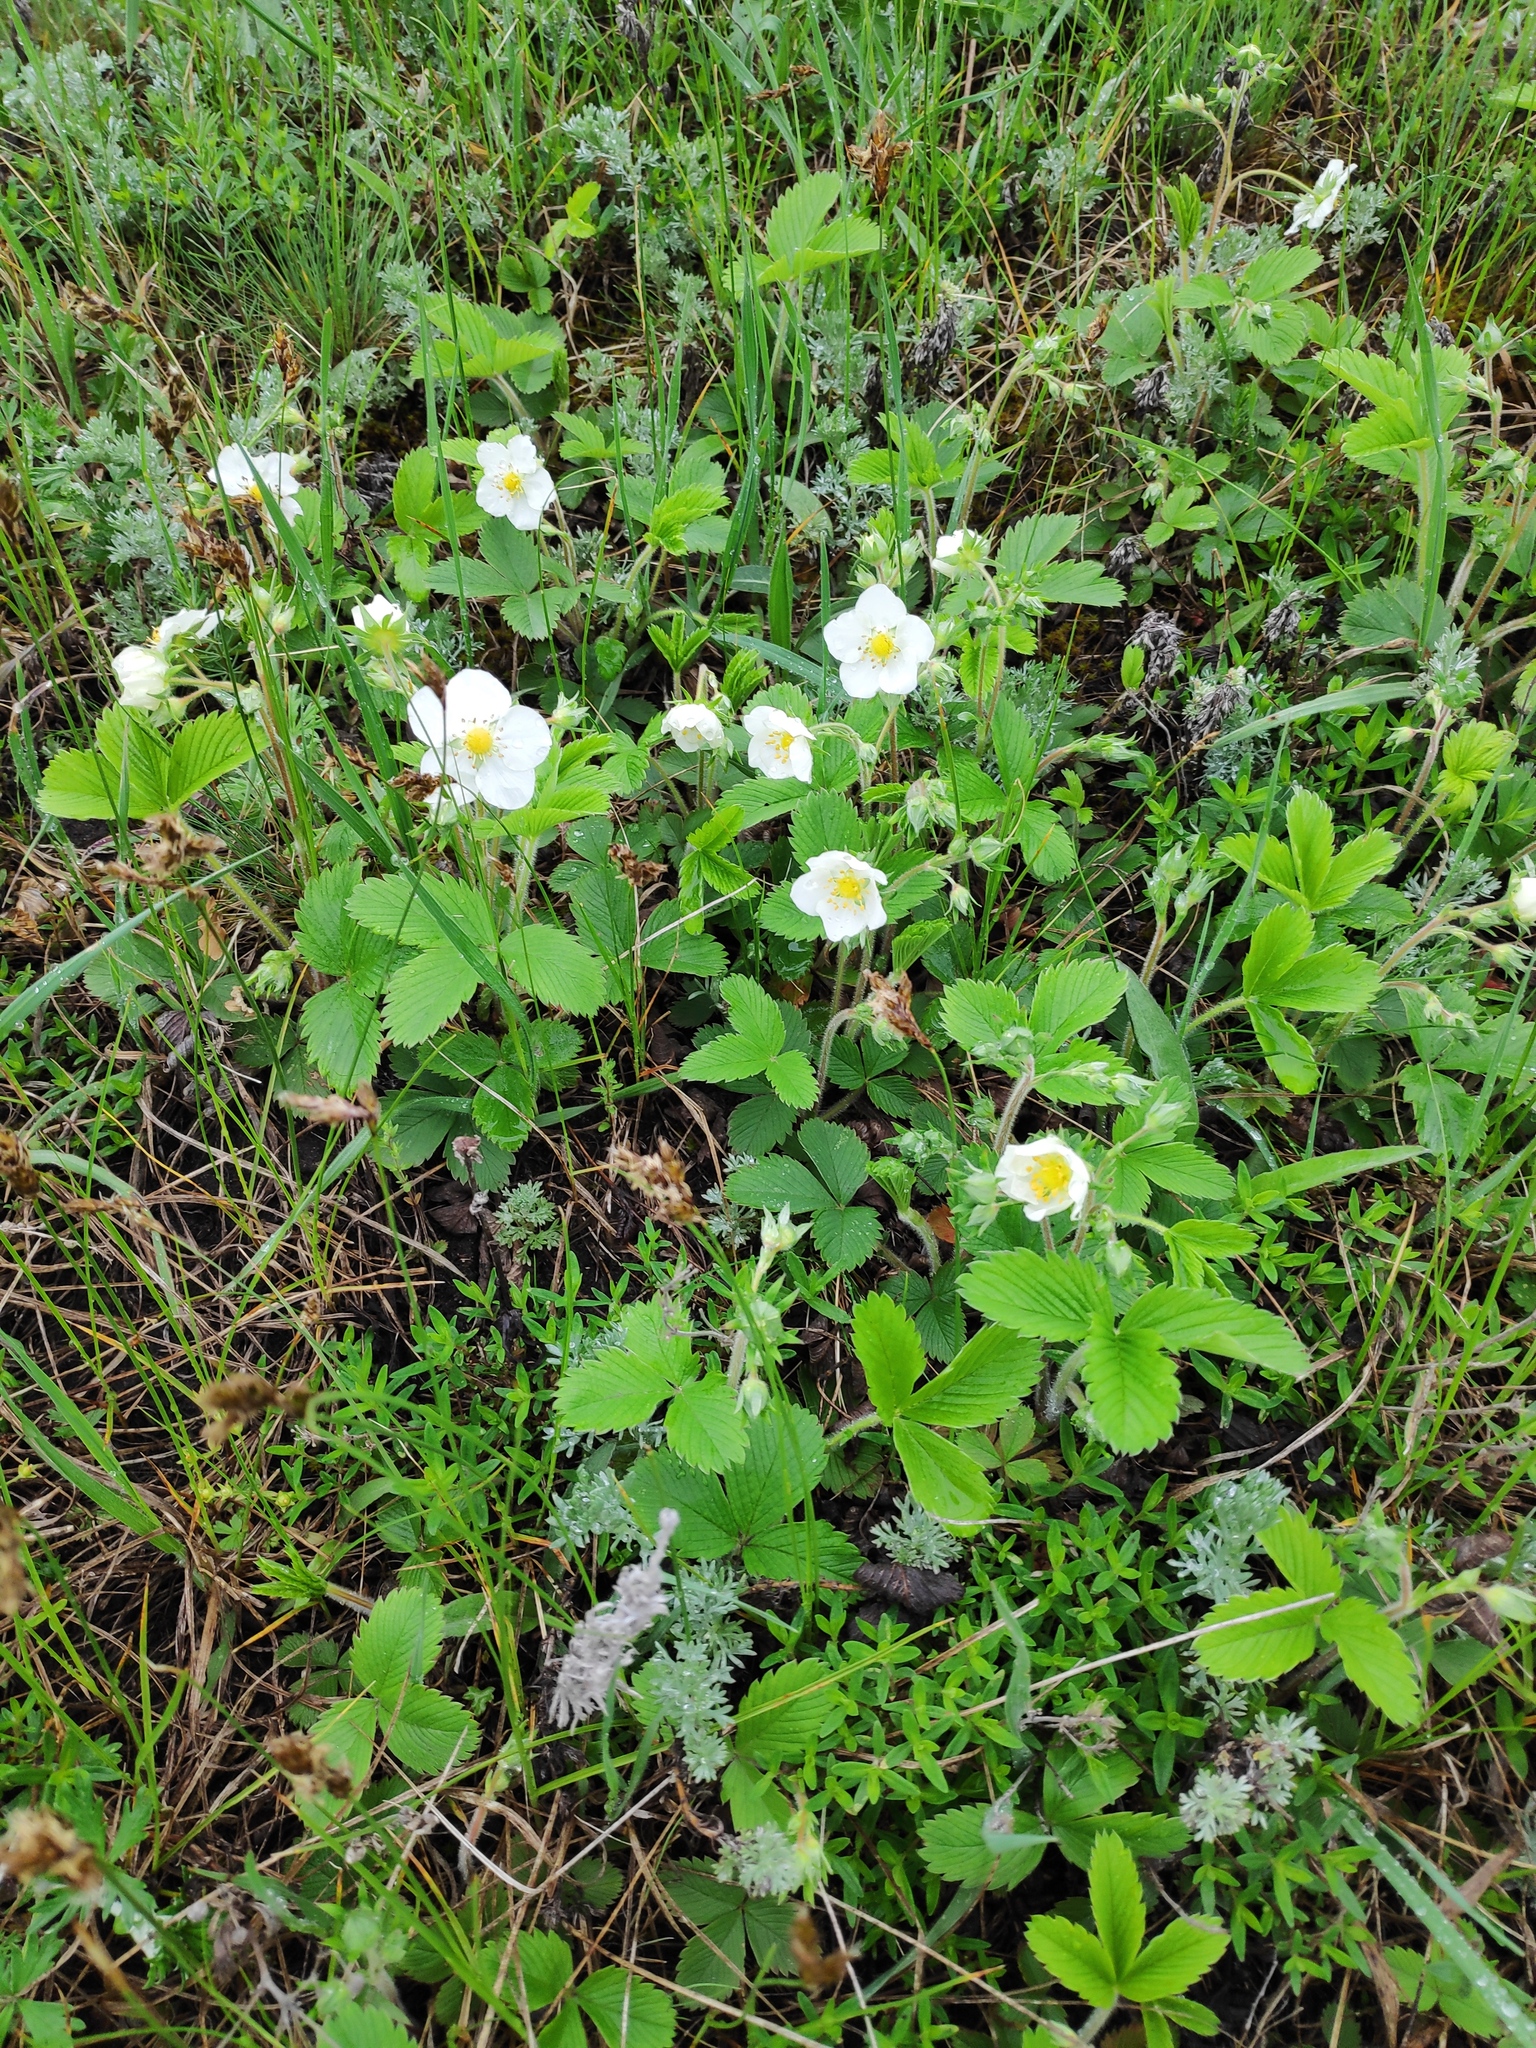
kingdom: Plantae
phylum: Tracheophyta
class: Magnoliopsida
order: Rosales
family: Rosaceae
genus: Fragaria
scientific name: Fragaria viridis
